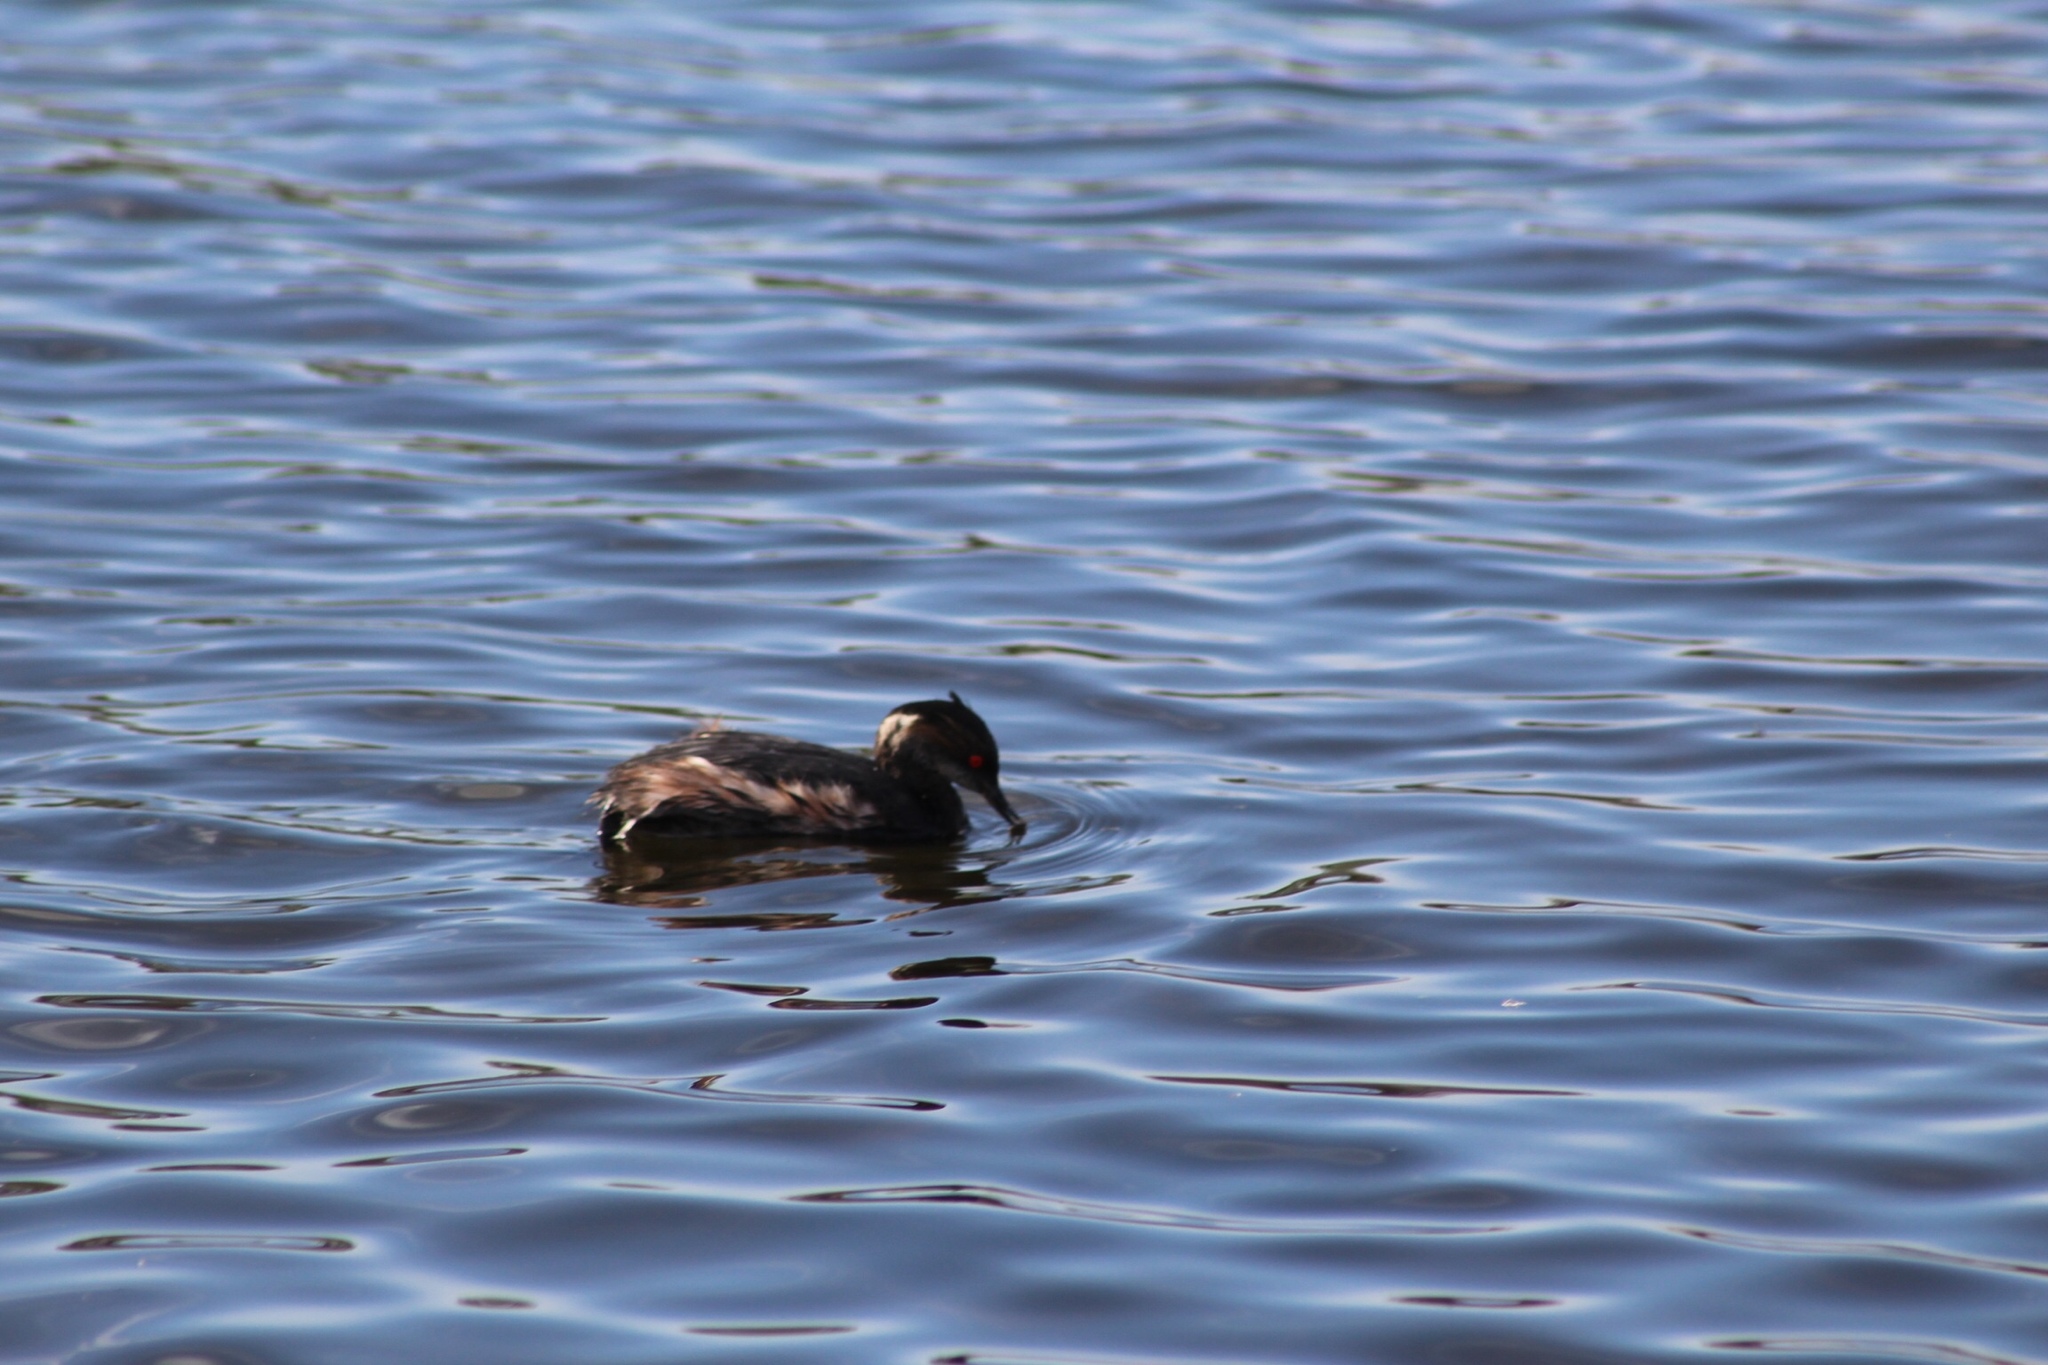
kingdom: Animalia
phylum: Chordata
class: Aves
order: Podicipediformes
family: Podicipedidae
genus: Podiceps
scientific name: Podiceps nigricollis
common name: Black-necked grebe
